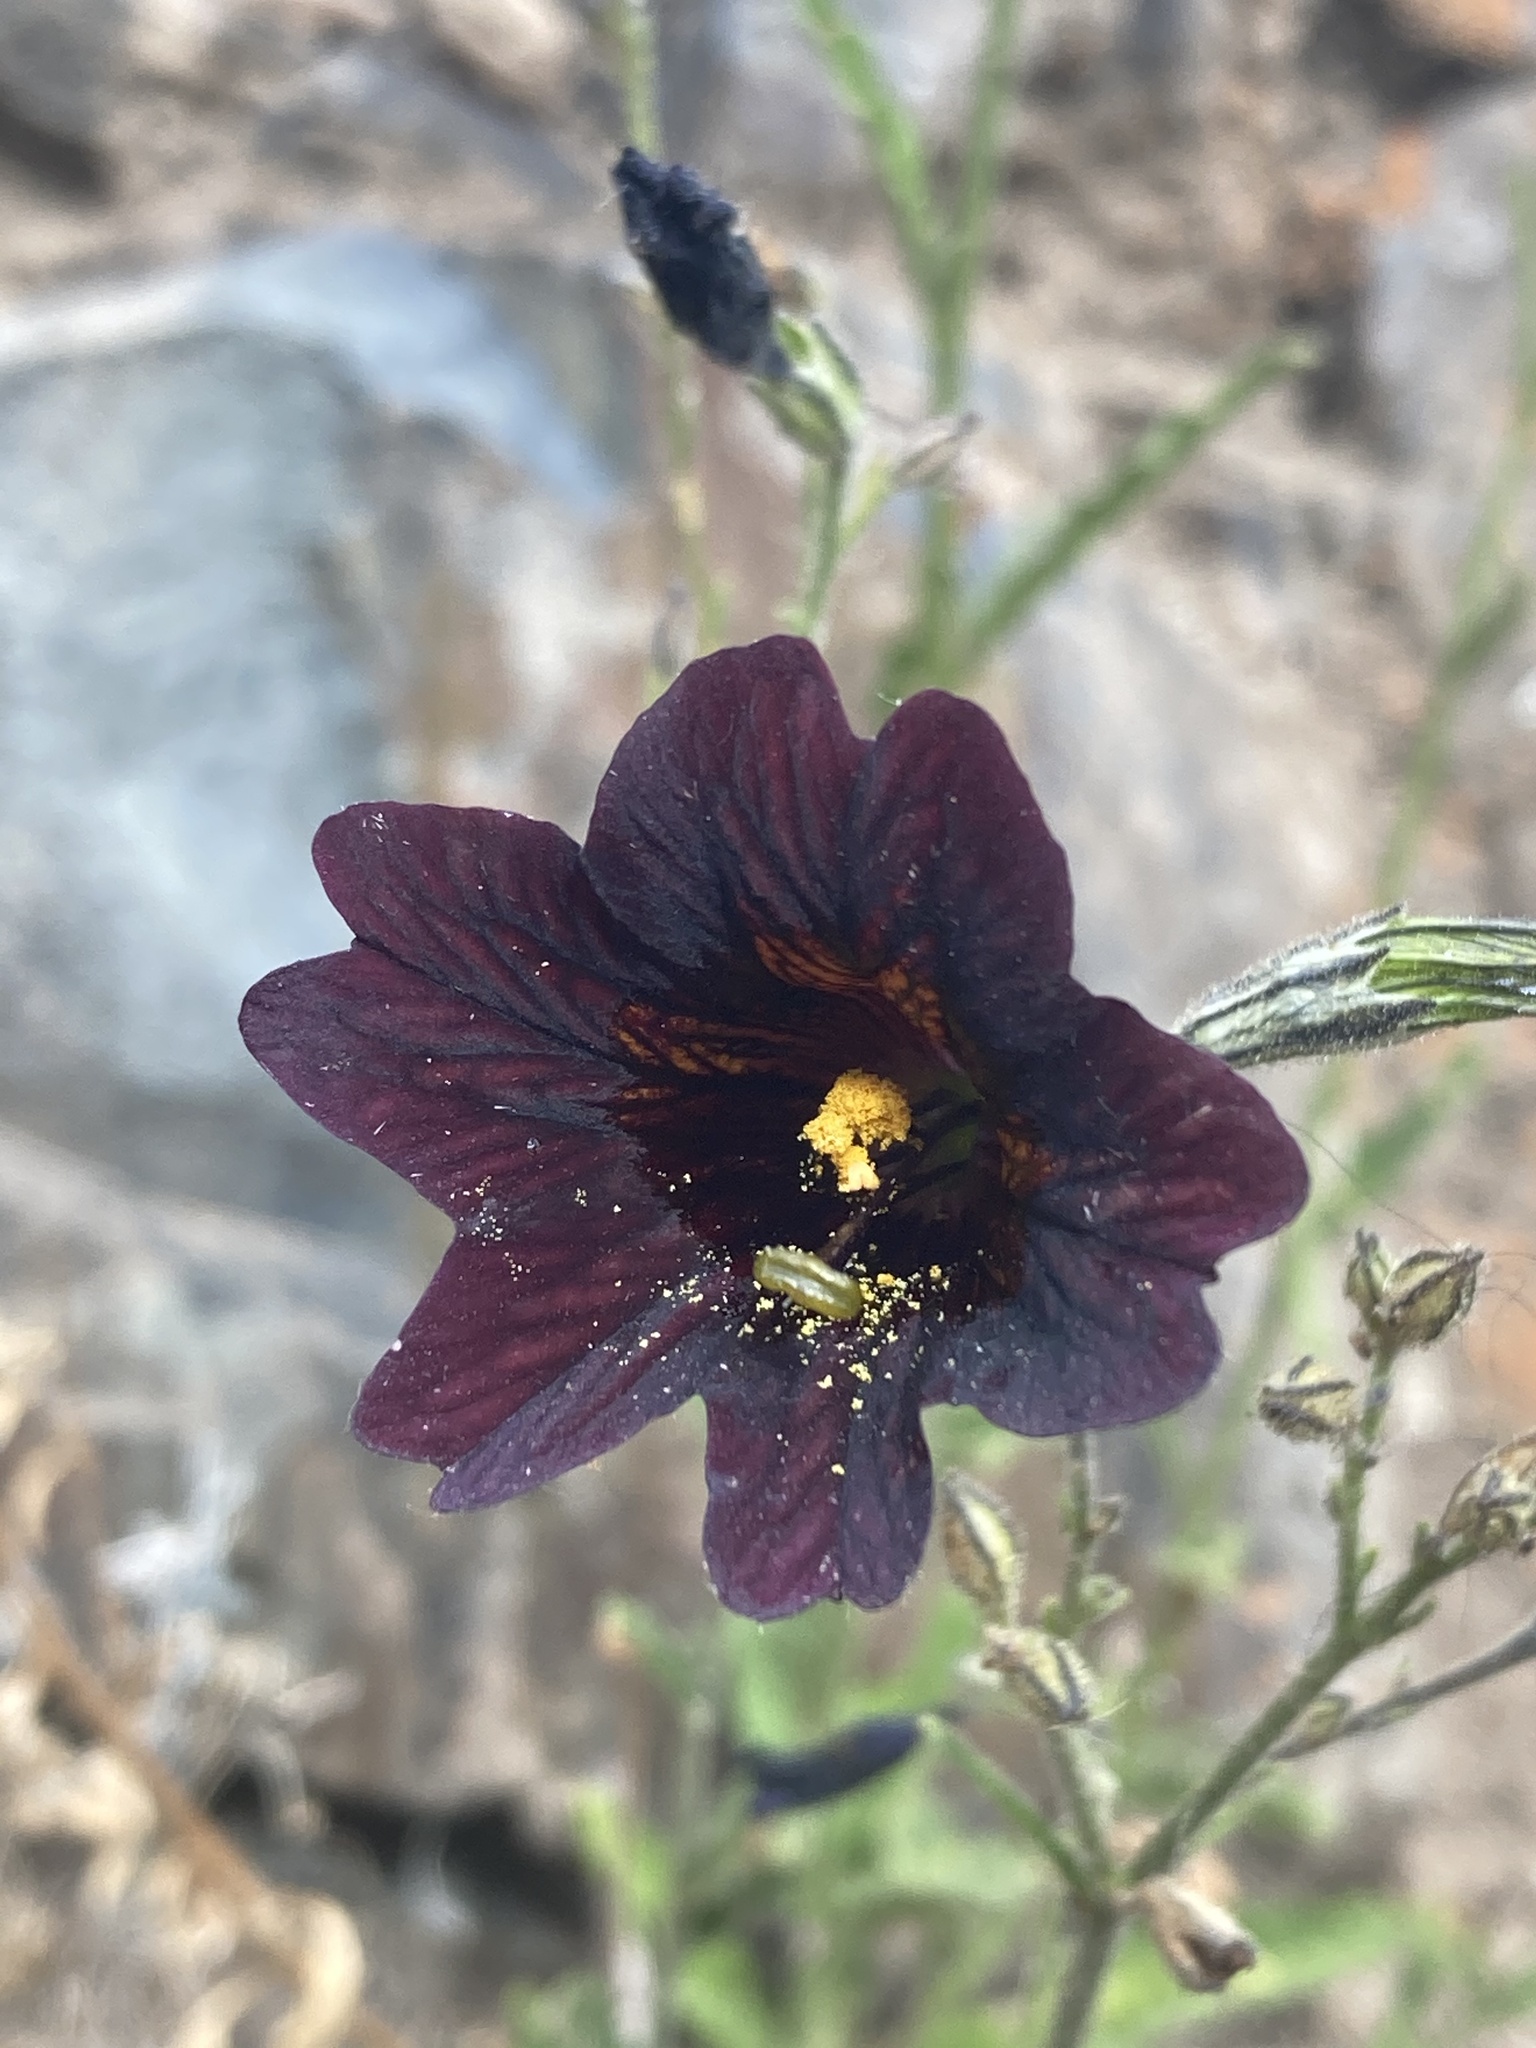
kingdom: Plantae
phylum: Tracheophyta
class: Magnoliopsida
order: Solanales
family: Solanaceae
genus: Salpiglossis
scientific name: Salpiglossis sinuata
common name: Painted-tongue
